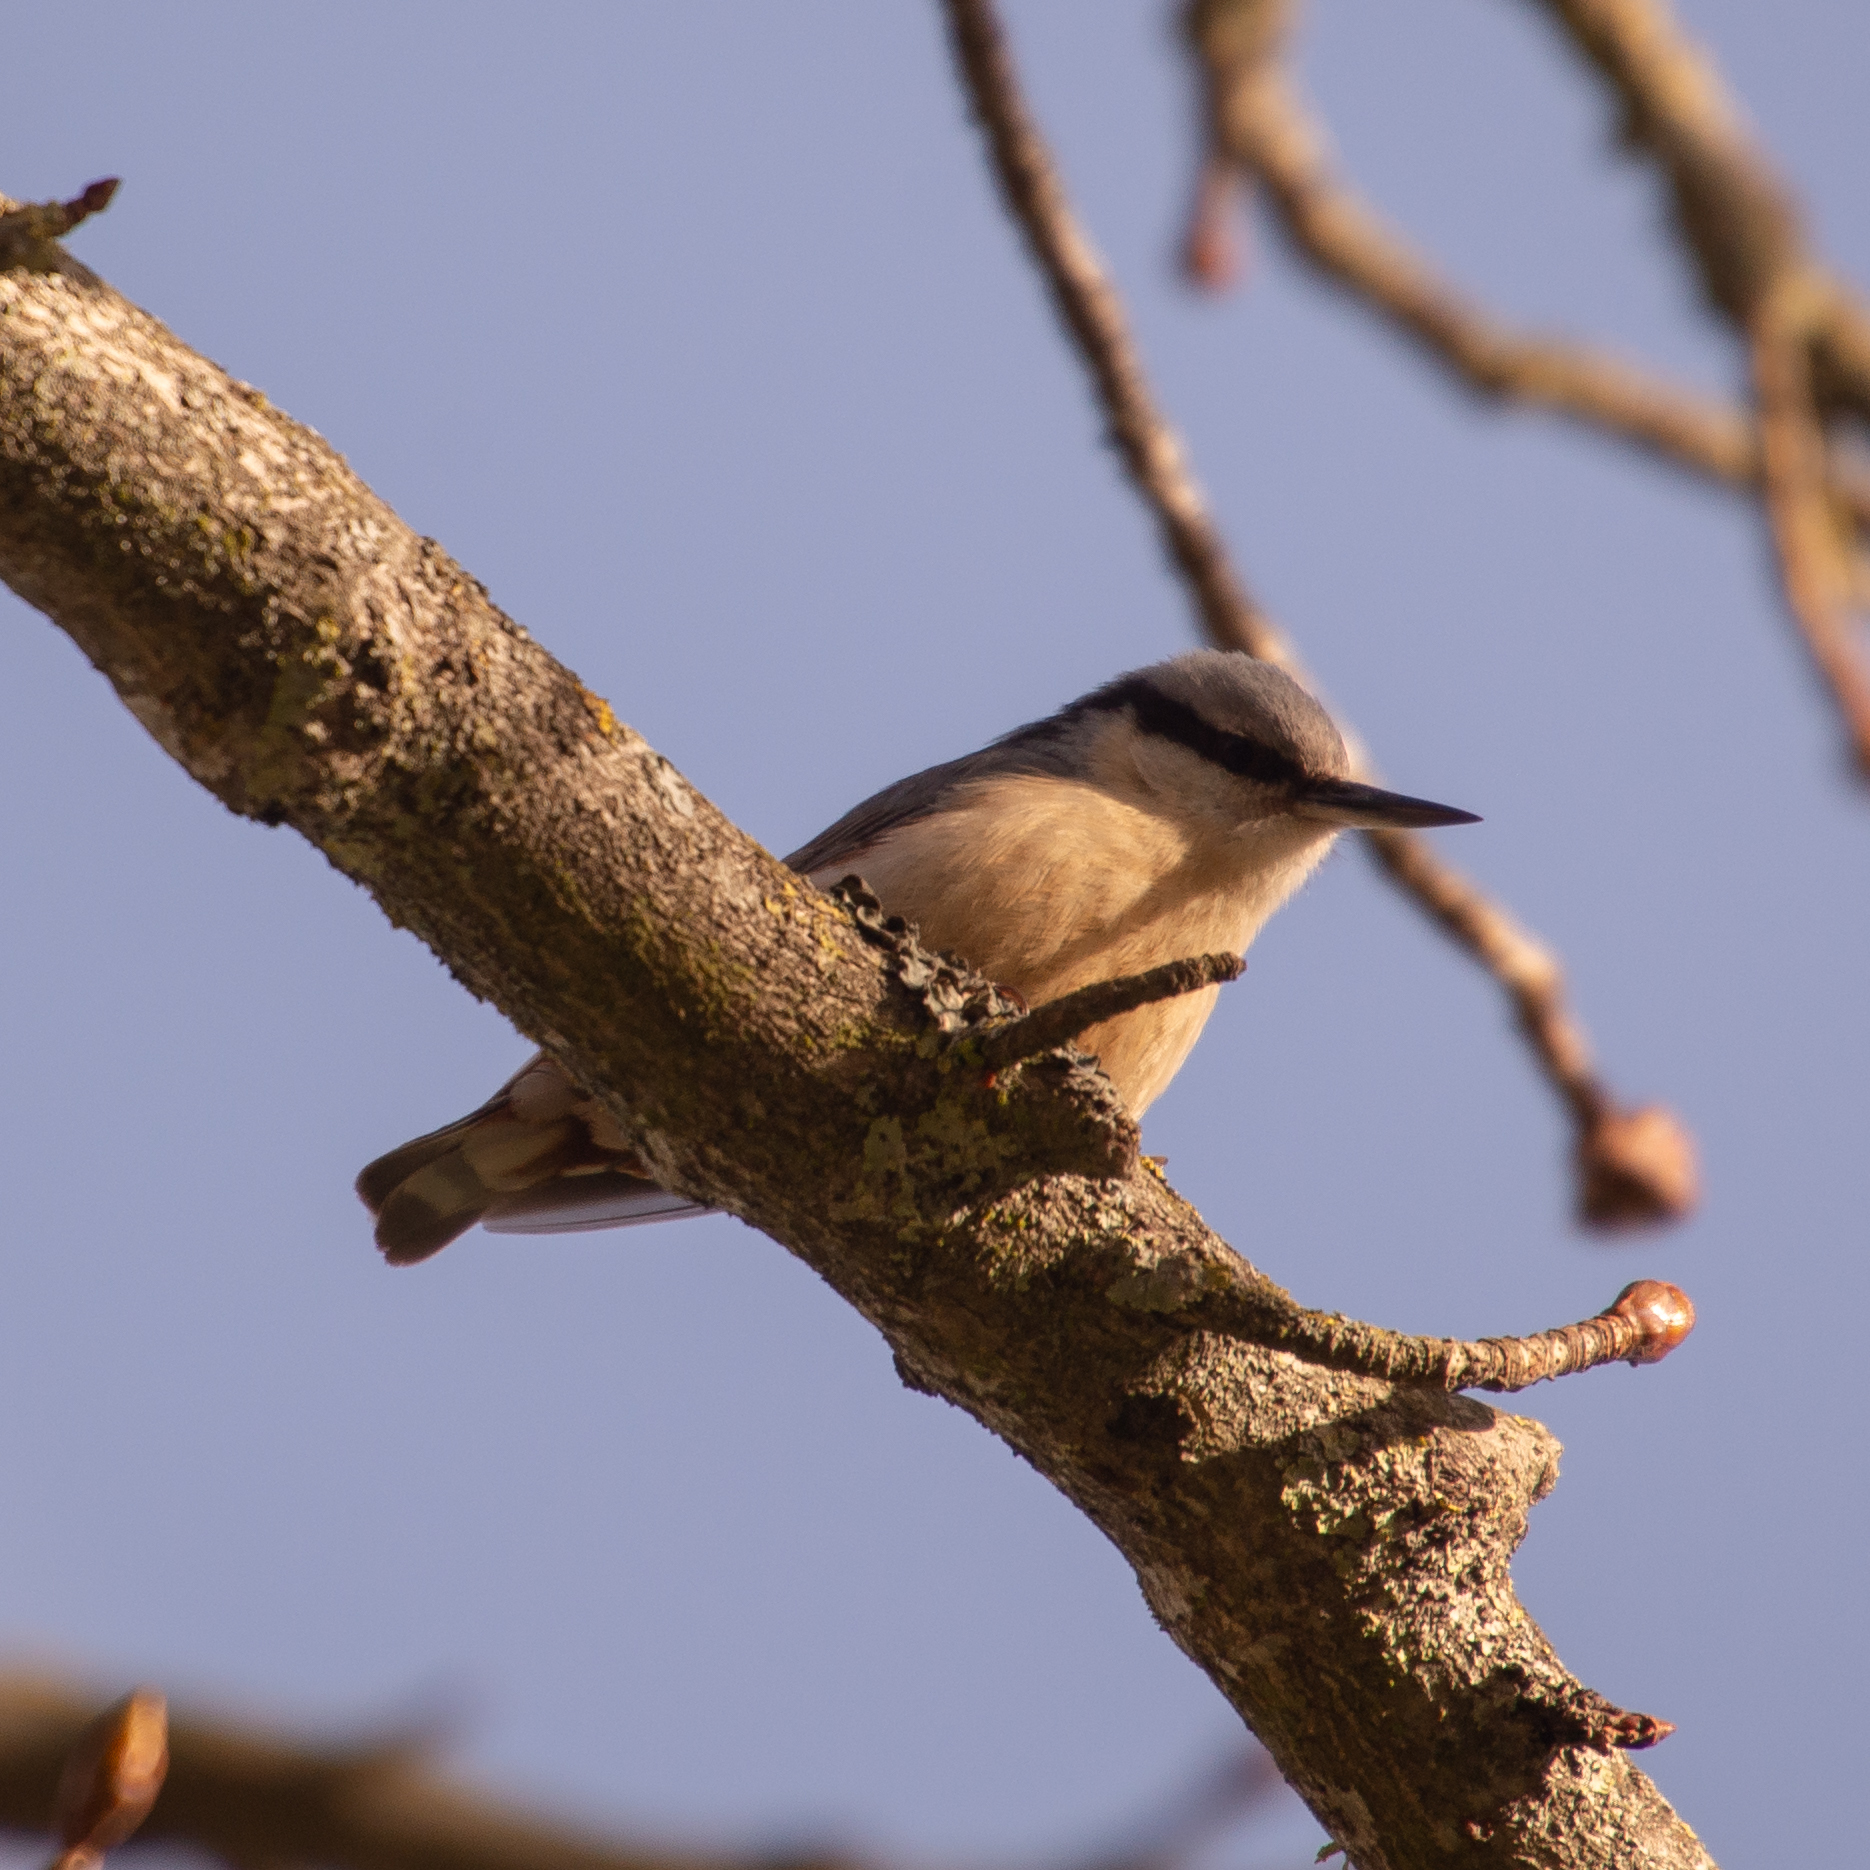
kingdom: Animalia
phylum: Chordata
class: Aves
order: Passeriformes
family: Sittidae
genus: Sitta
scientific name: Sitta europaea
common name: Eurasian nuthatch
